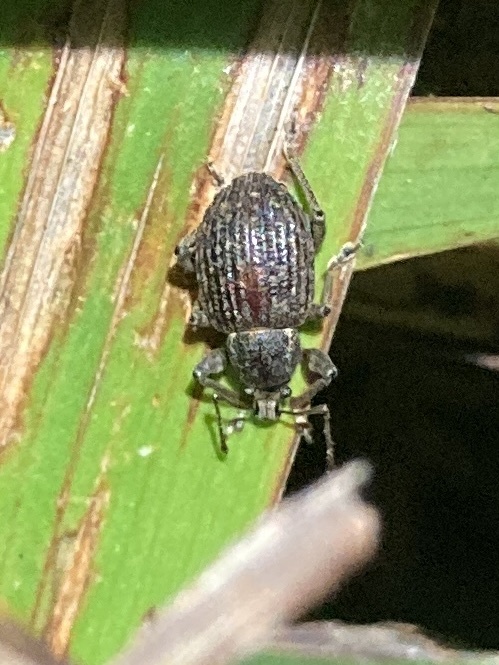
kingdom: Animalia
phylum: Arthropoda
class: Insecta
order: Coleoptera
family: Curculionidae
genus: Phlyctinus
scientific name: Phlyctinus callosus
